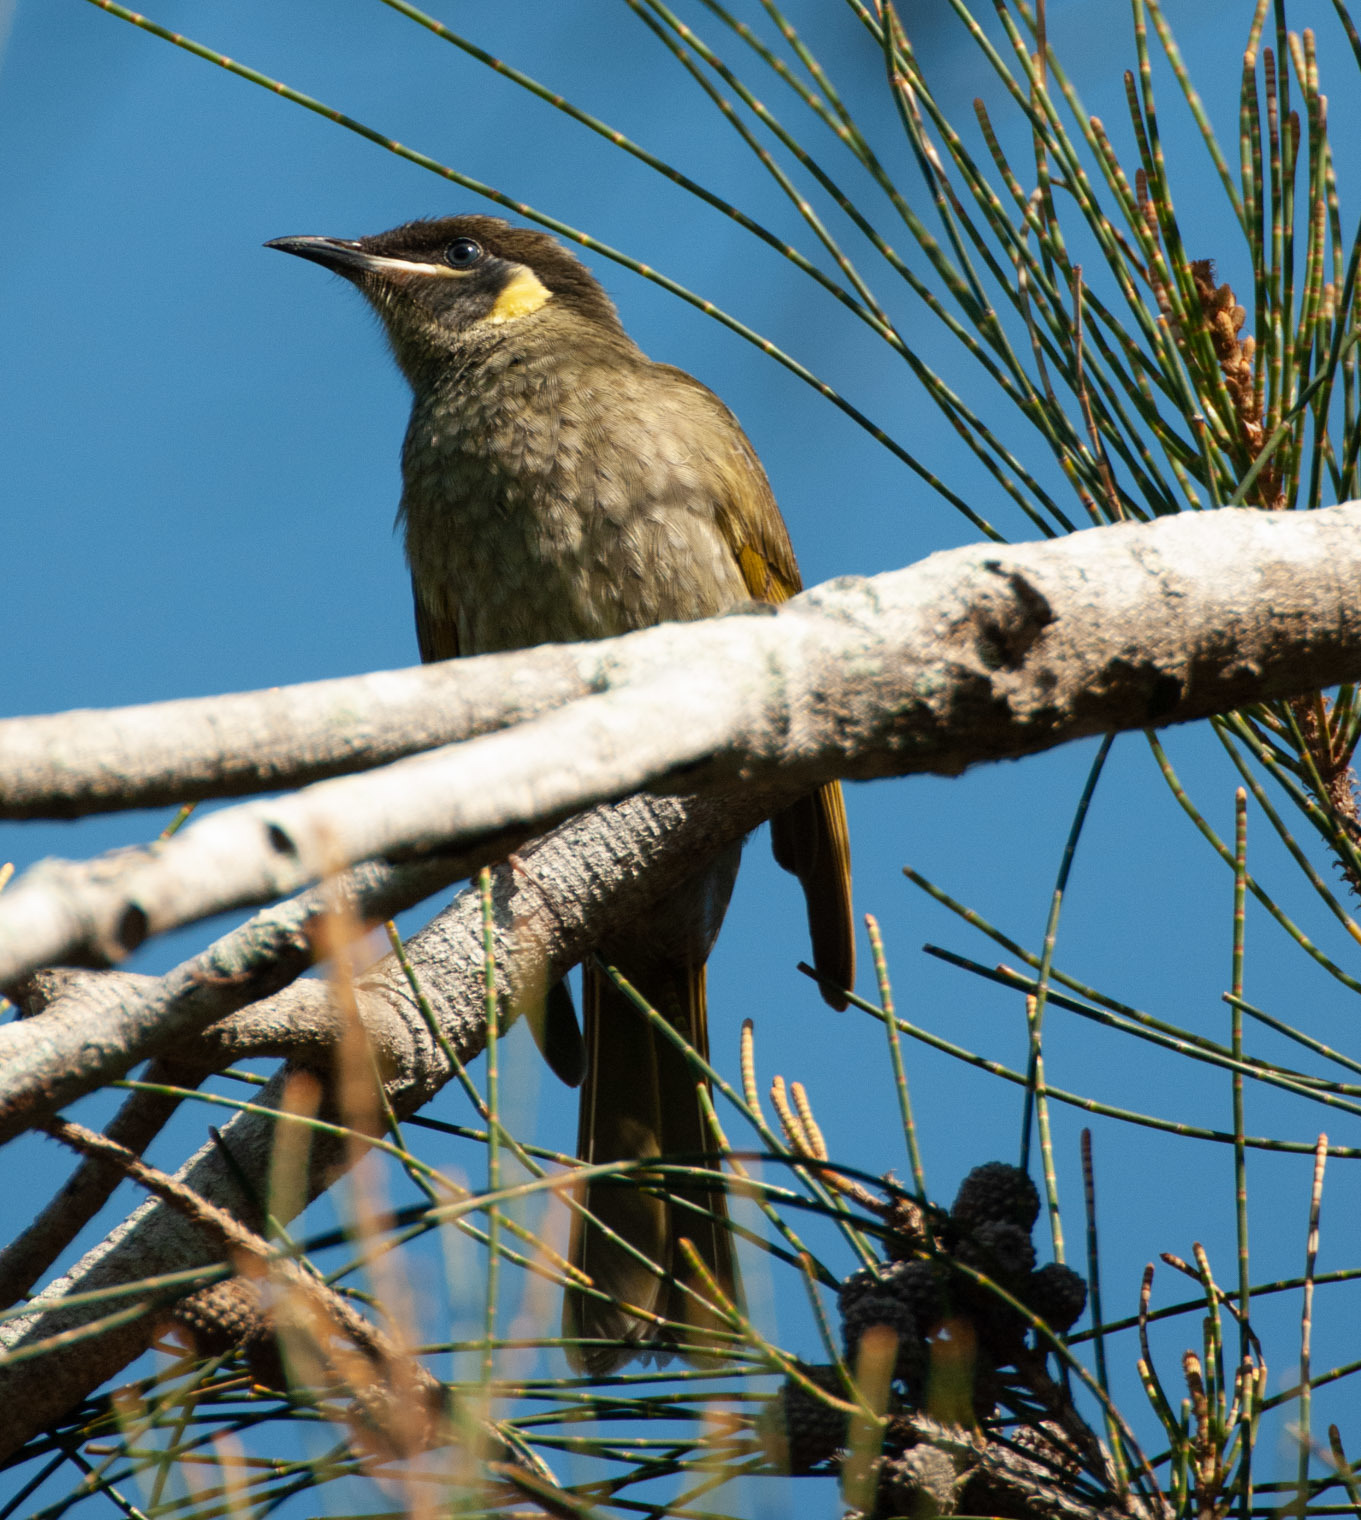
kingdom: Animalia
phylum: Chordata
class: Aves
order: Passeriformes
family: Meliphagidae
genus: Meliphaga
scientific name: Meliphaga lewinii
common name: Lewin's honeyeater
